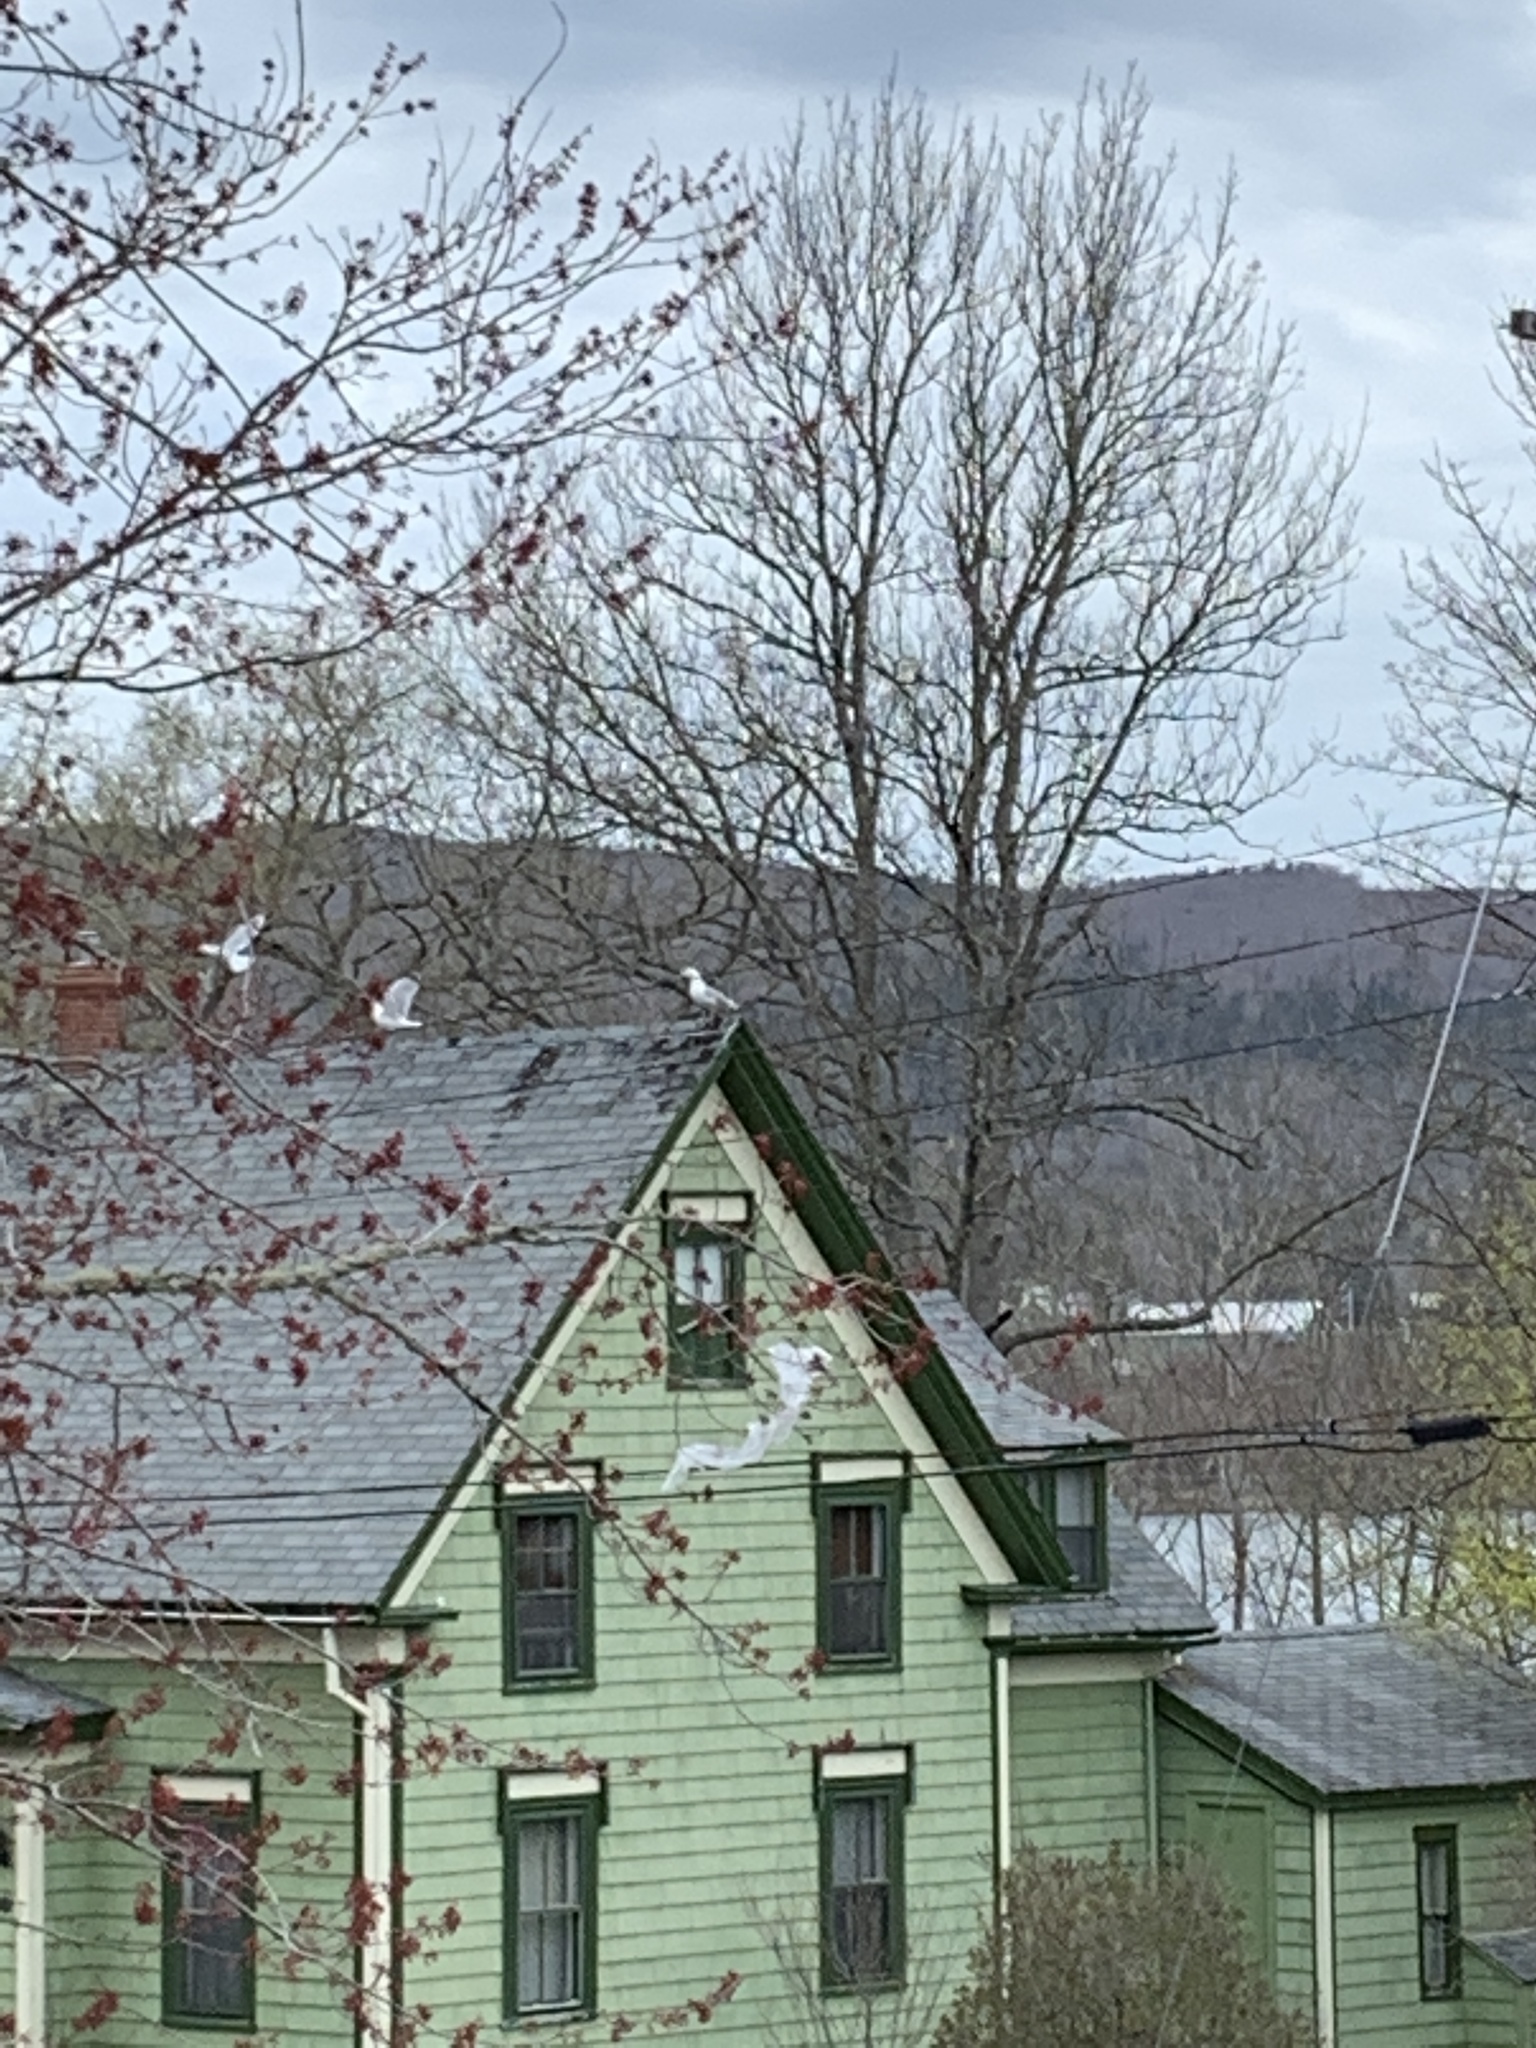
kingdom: Animalia
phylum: Chordata
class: Aves
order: Charadriiformes
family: Laridae
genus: Larus
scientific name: Larus argentatus
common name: Herring gull
